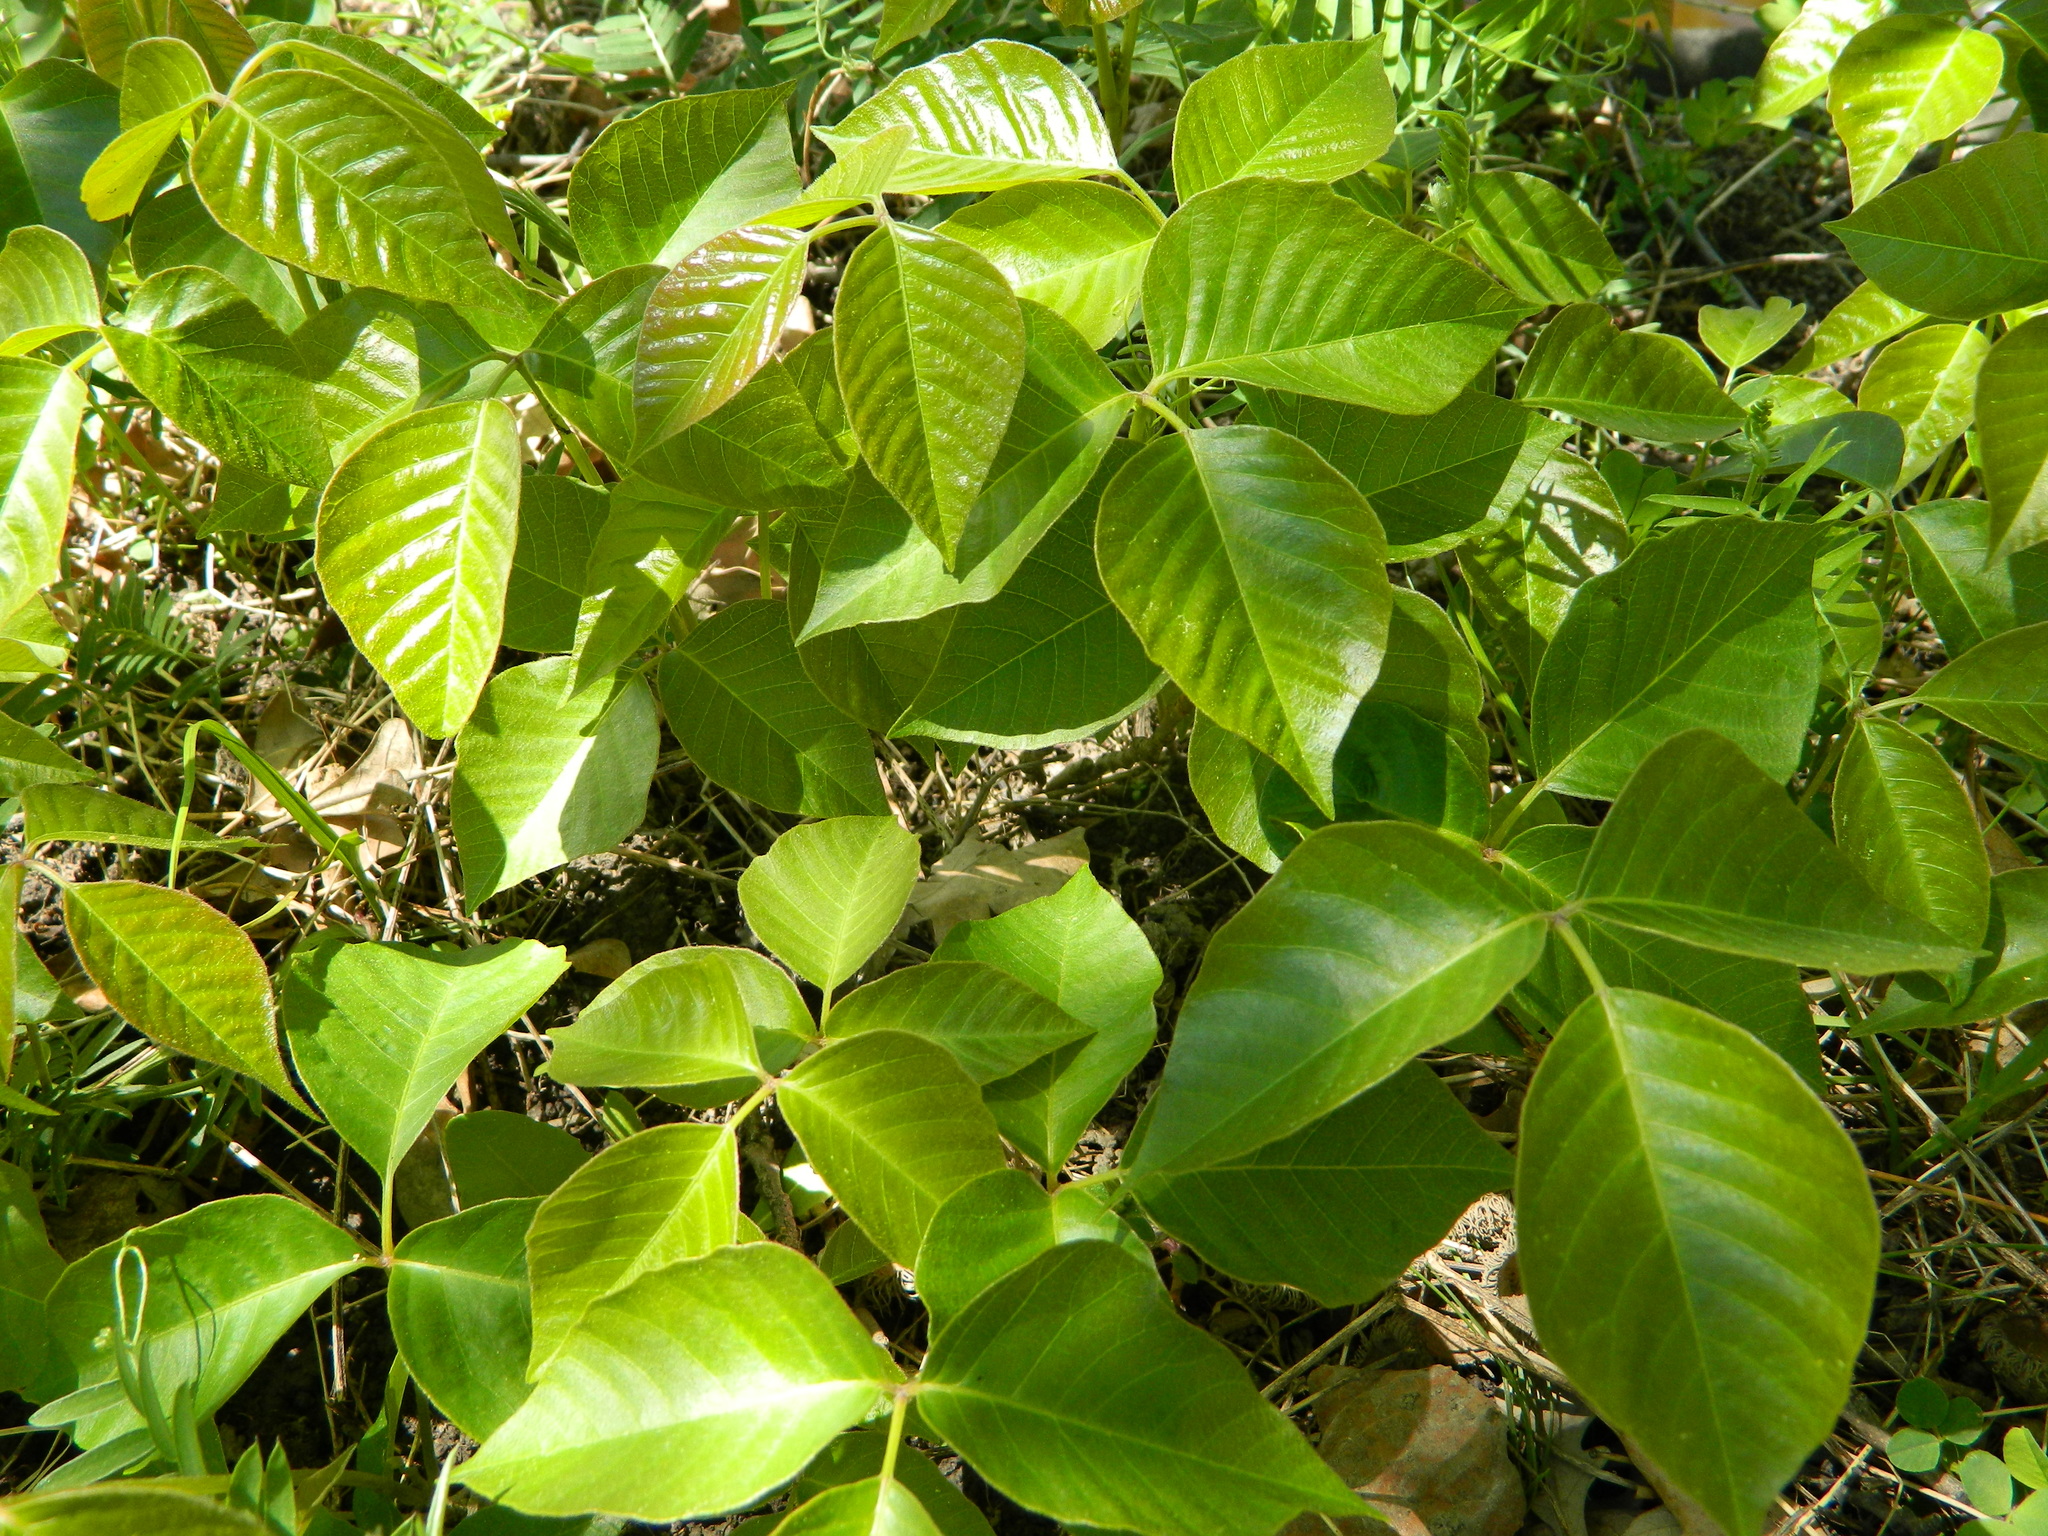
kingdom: Plantae
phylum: Tracheophyta
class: Magnoliopsida
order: Sapindales
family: Anacardiaceae
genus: Toxicodendron
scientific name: Toxicodendron radicans
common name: Poison ivy
